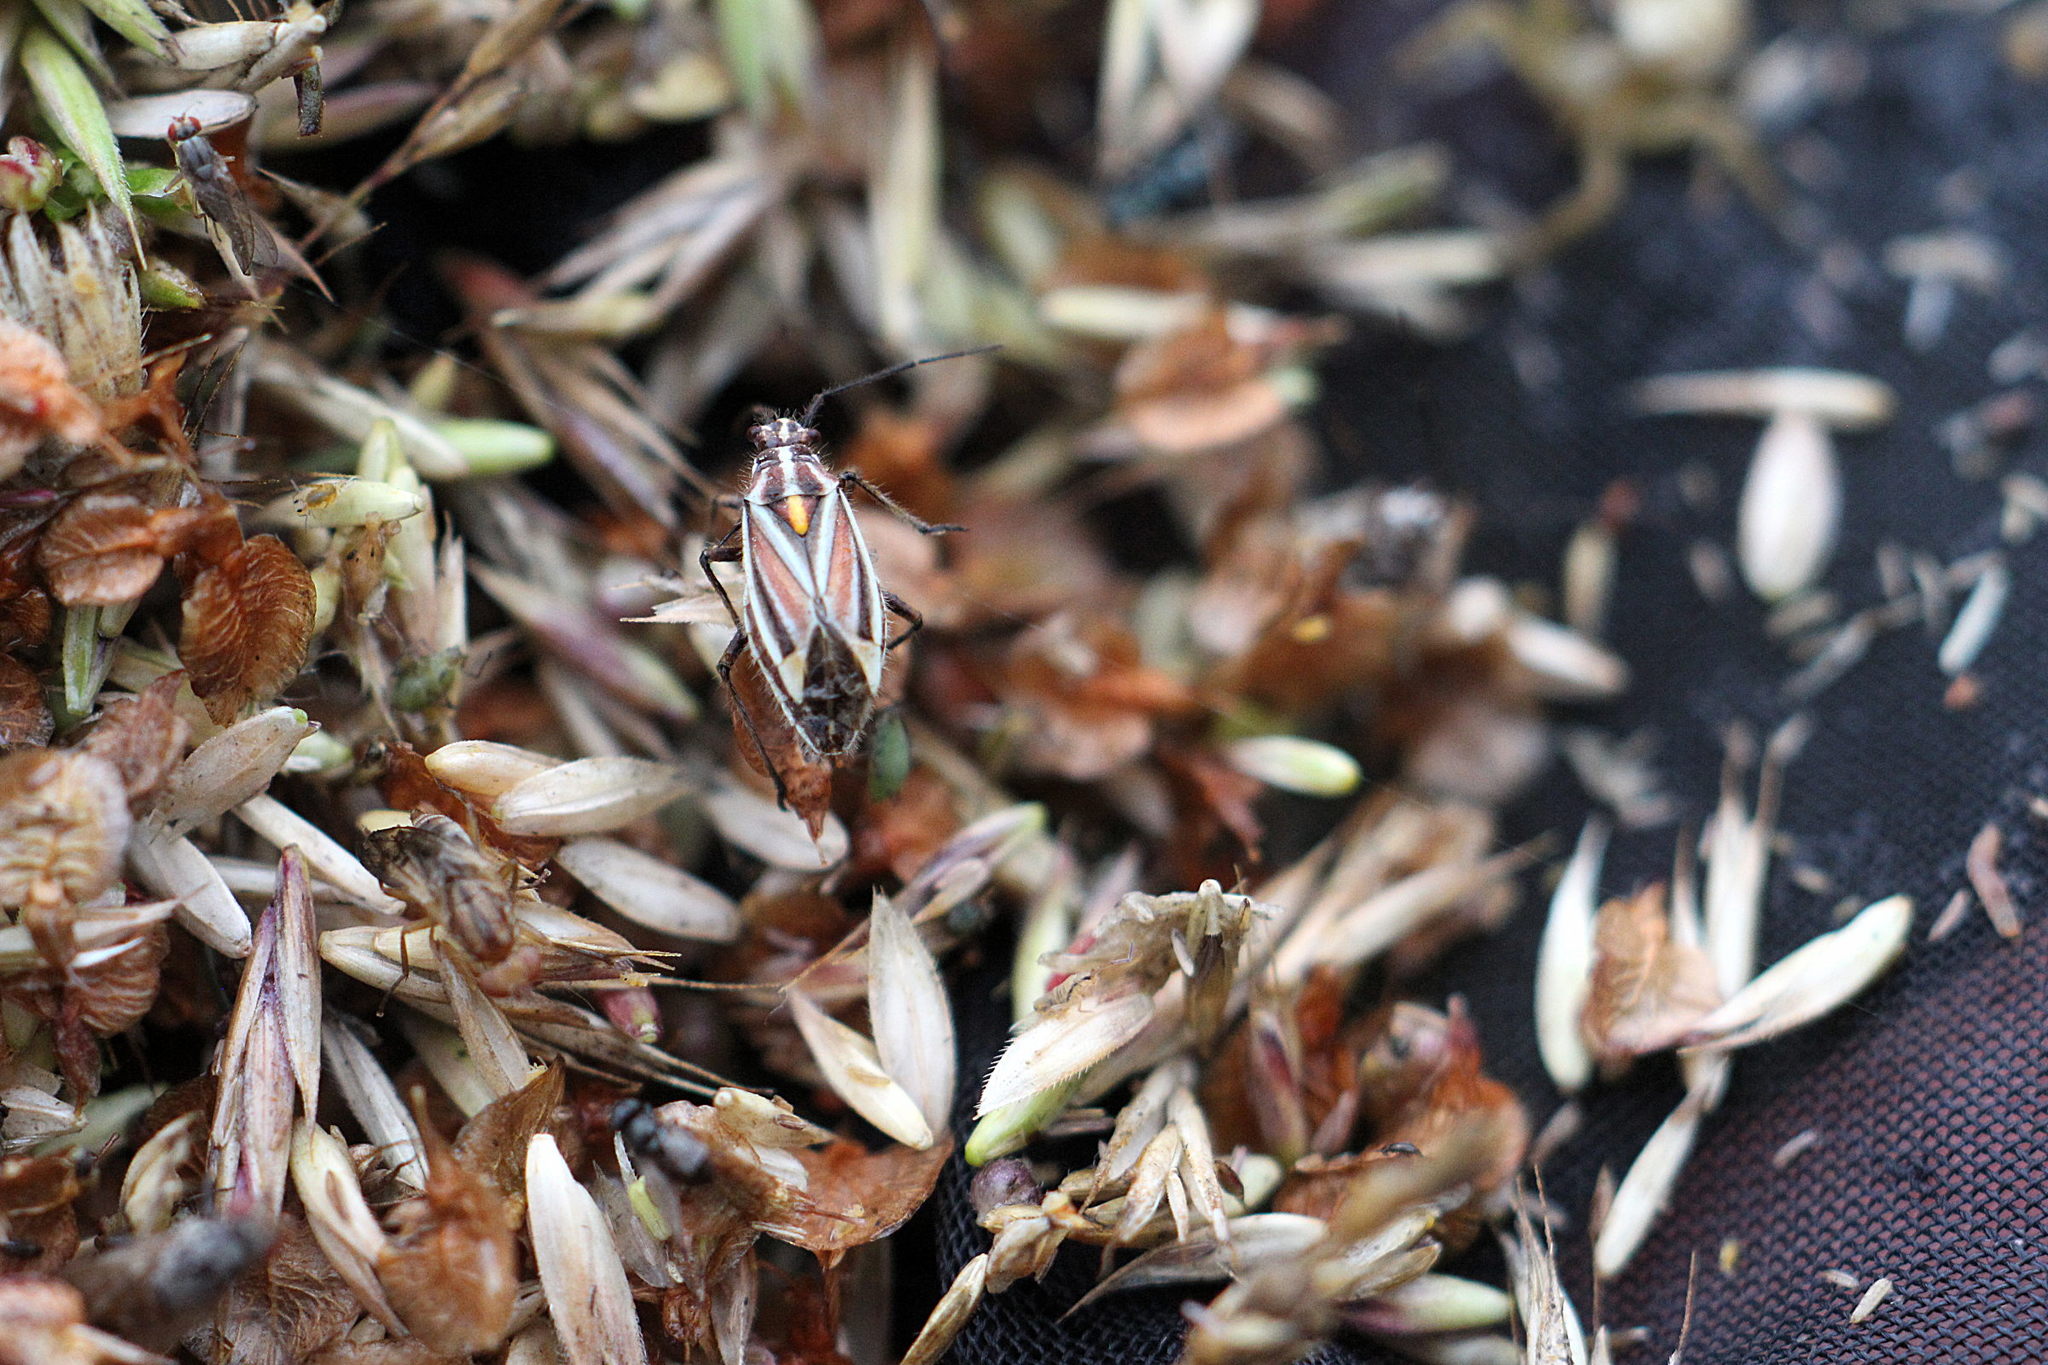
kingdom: Animalia
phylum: Arthropoda
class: Insecta
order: Hemiptera
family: Miridae
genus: Horistus
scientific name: Horistus orientalis
